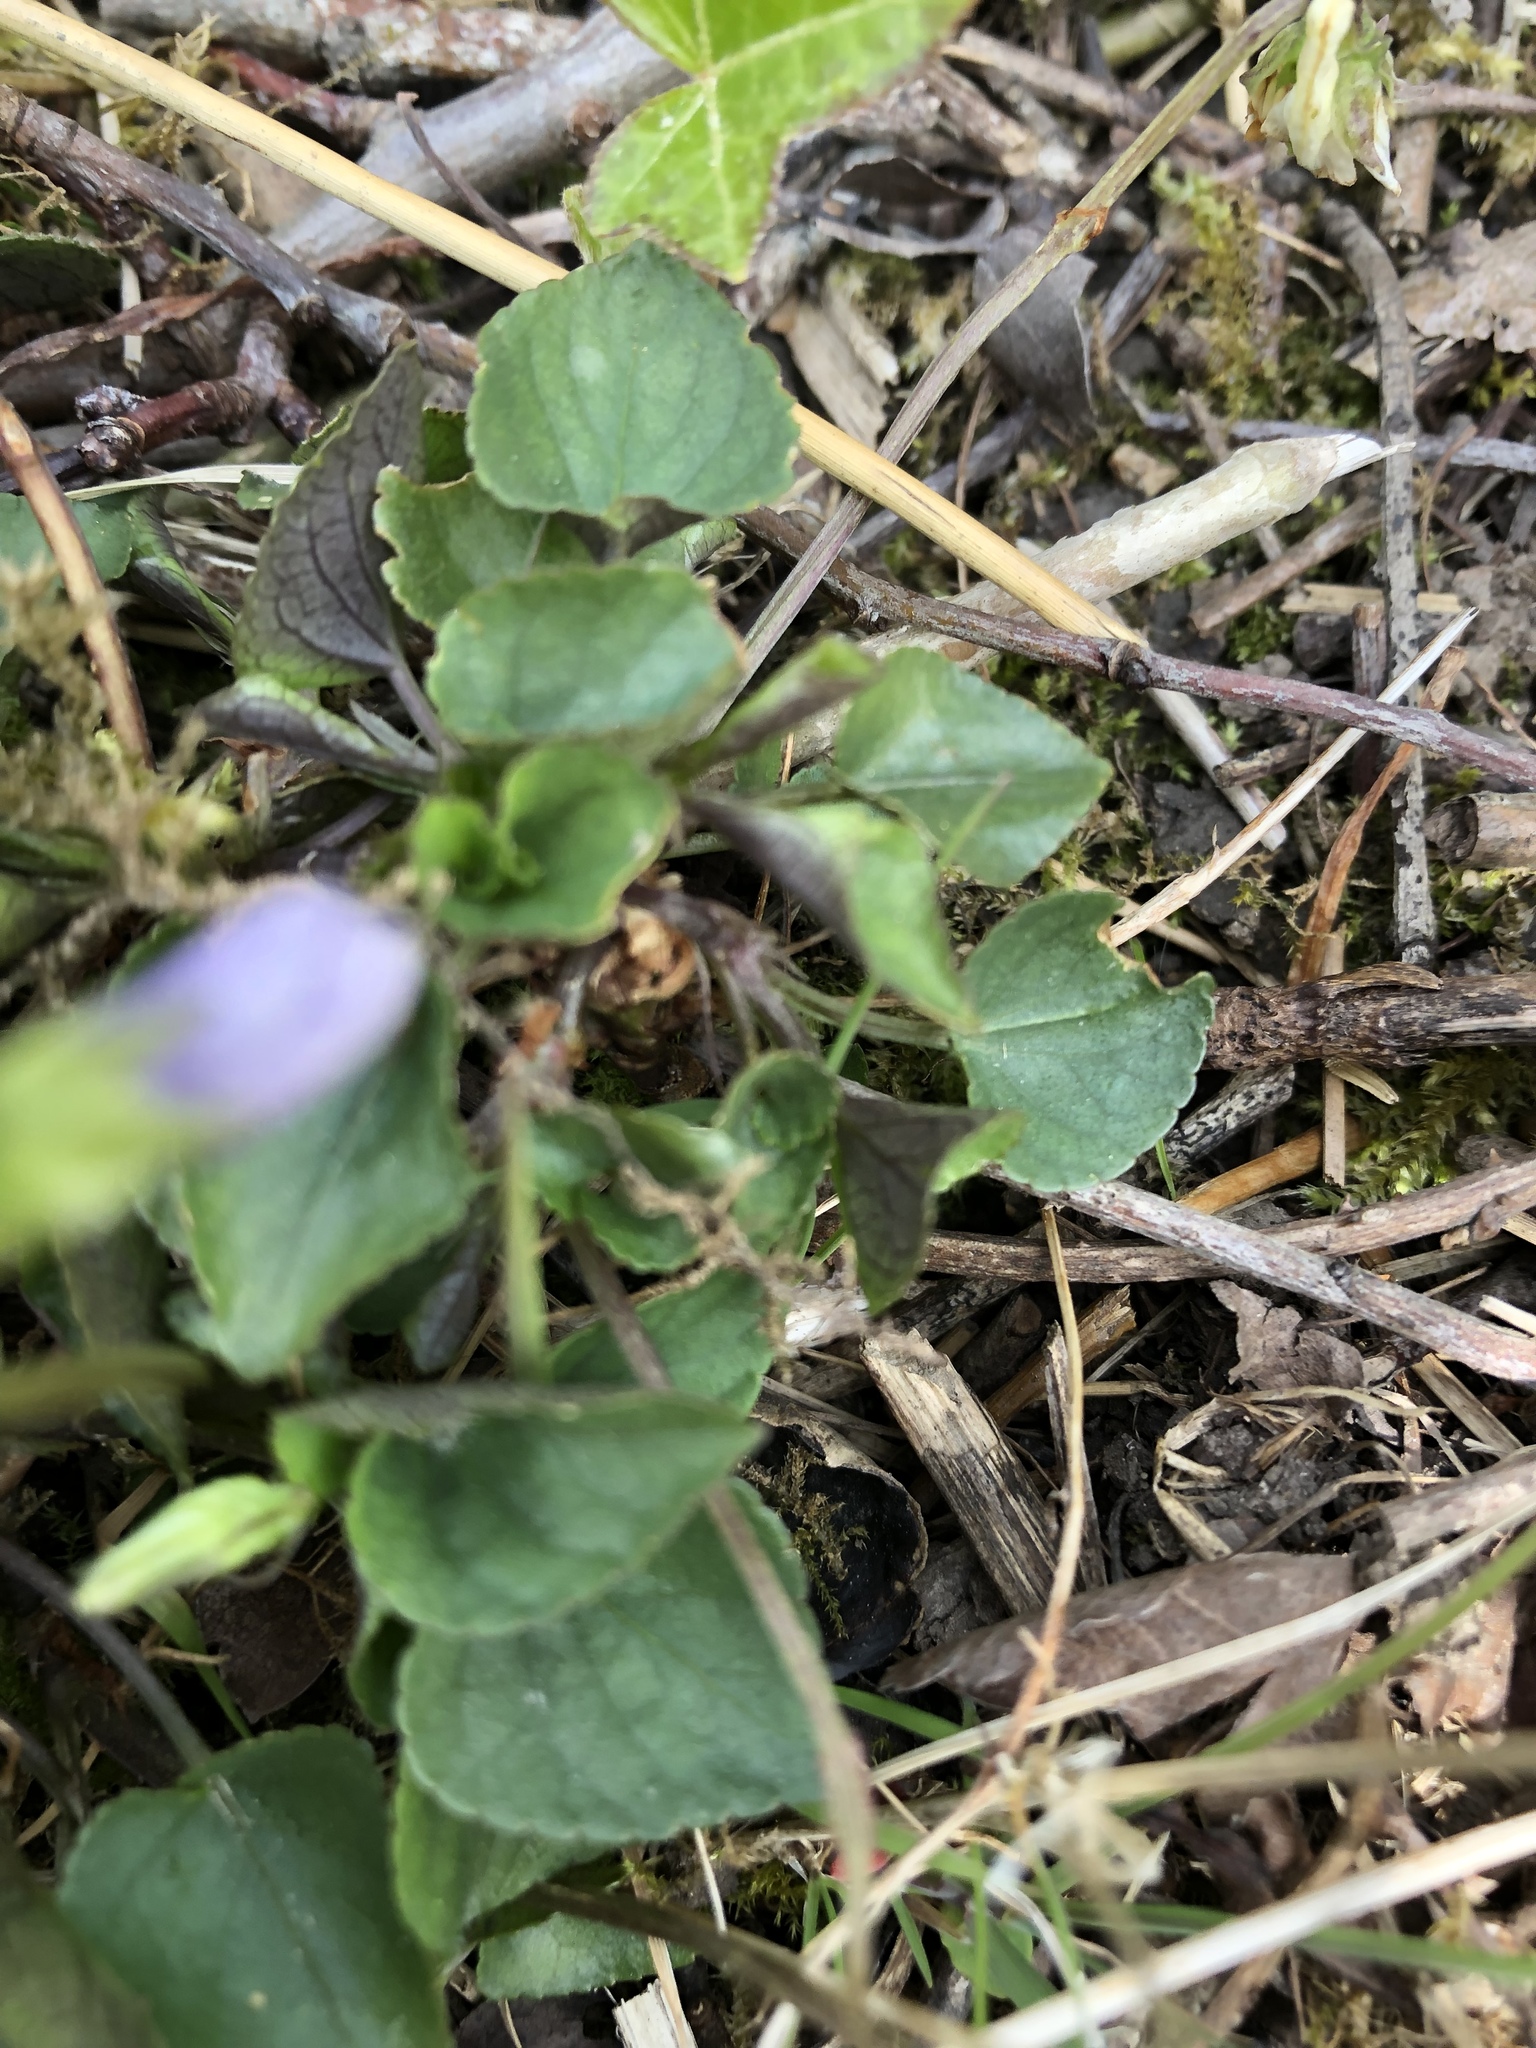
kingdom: Plantae
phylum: Tracheophyta
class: Magnoliopsida
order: Malpighiales
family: Violaceae
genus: Viola
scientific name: Viola riviniana
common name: Common dog-violet
